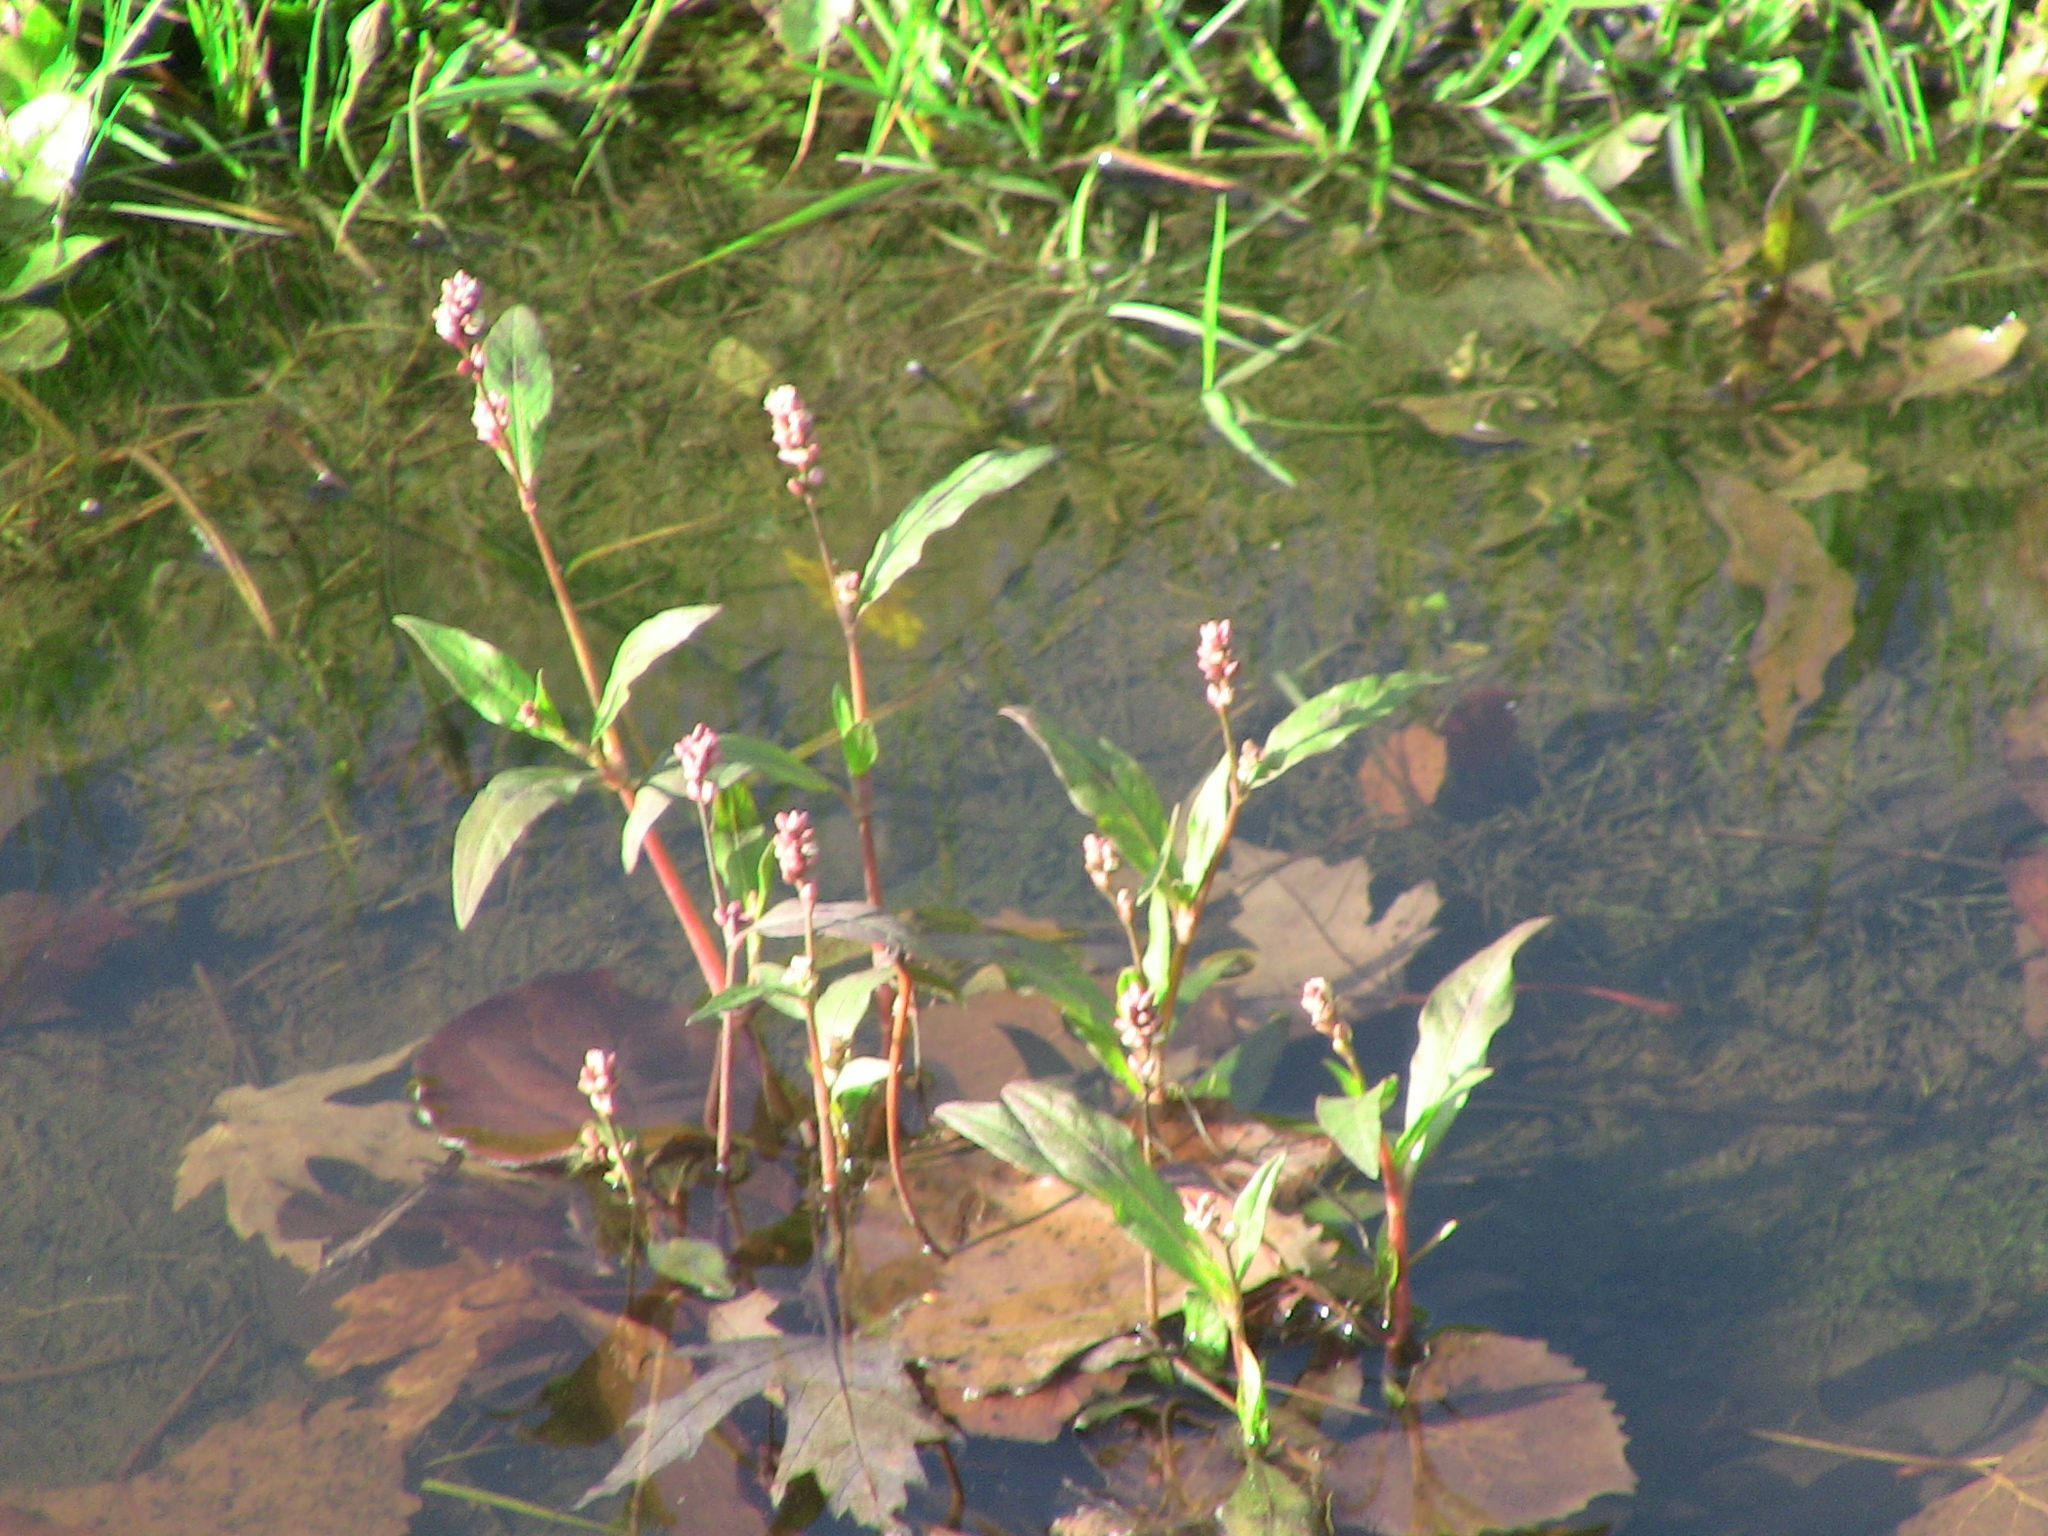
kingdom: Plantae
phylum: Tracheophyta
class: Magnoliopsida
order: Caryophyllales
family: Polygonaceae
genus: Persicaria
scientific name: Persicaria maculosa
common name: Redshank
